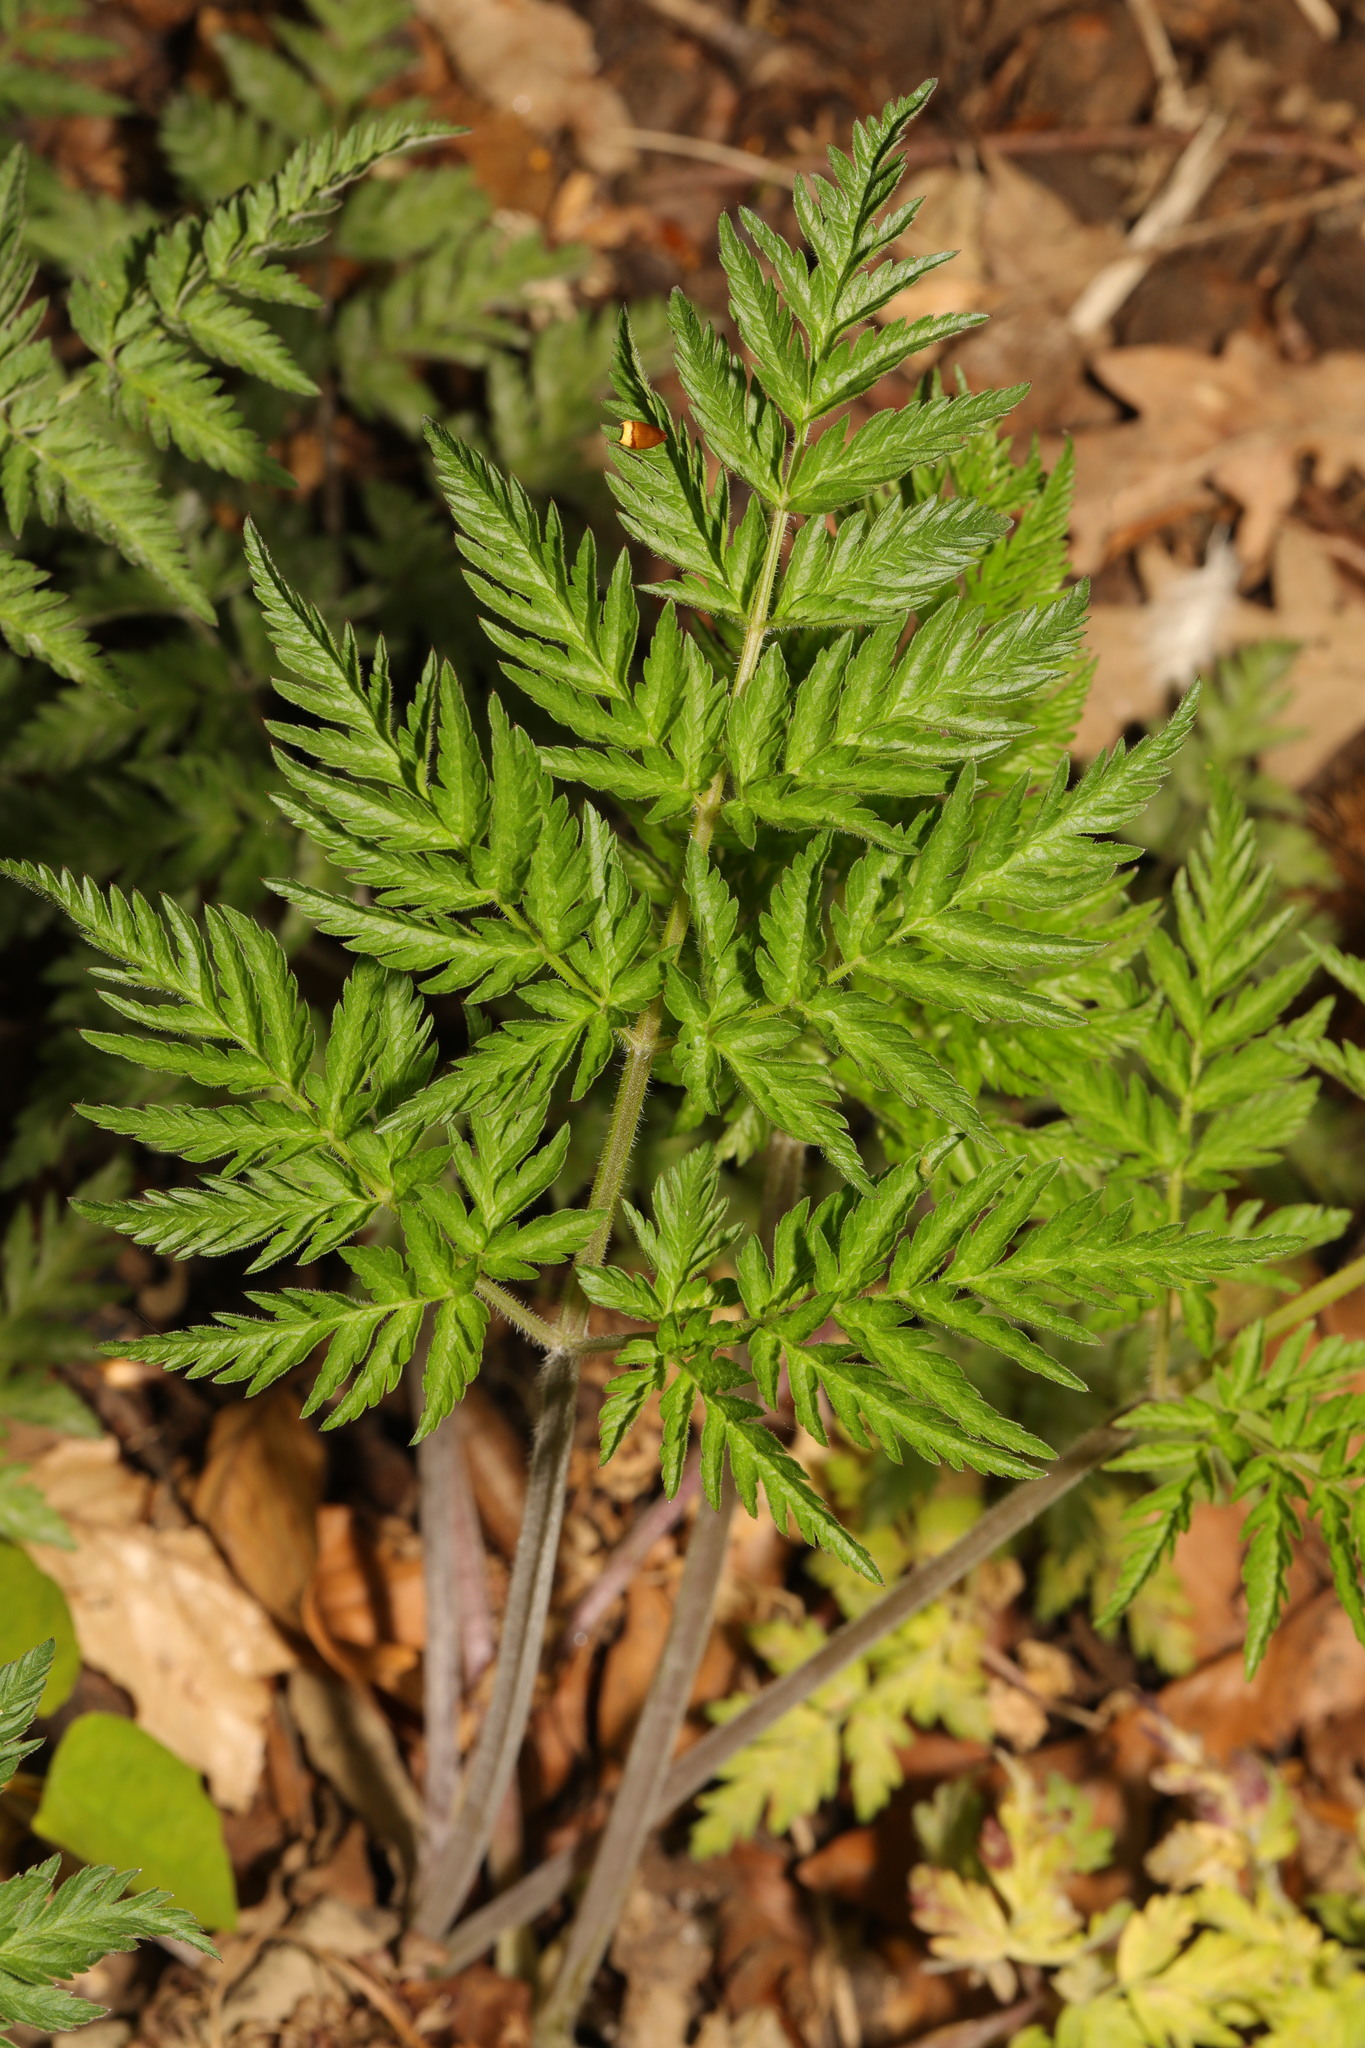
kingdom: Plantae
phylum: Tracheophyta
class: Magnoliopsida
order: Apiales
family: Apiaceae
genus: Anthriscus
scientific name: Anthriscus sylvestris
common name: Cow parsley
